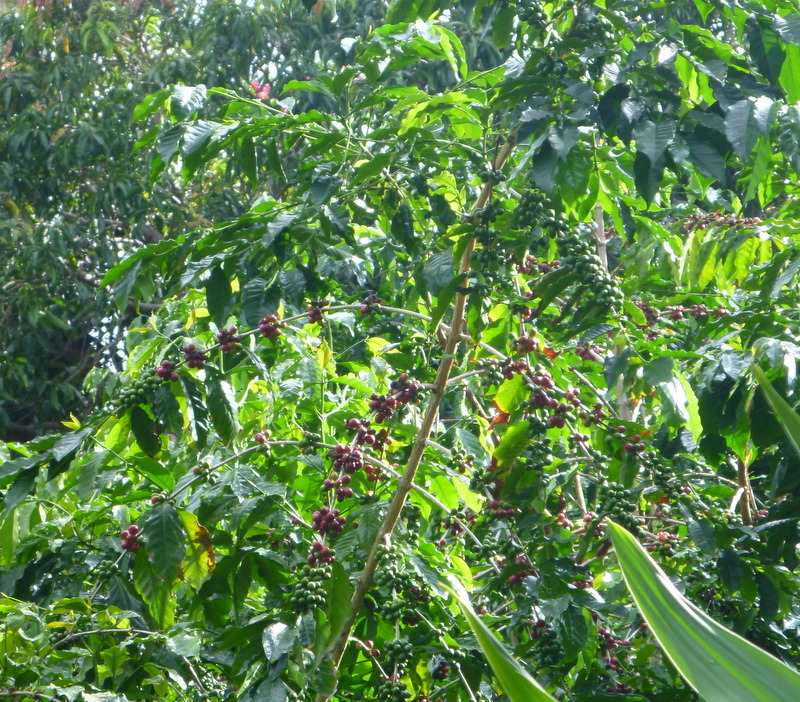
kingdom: Plantae
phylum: Tracheophyta
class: Magnoliopsida
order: Gentianales
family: Rubiaceae
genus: Coffea
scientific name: Coffea arabica
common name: Coffee
